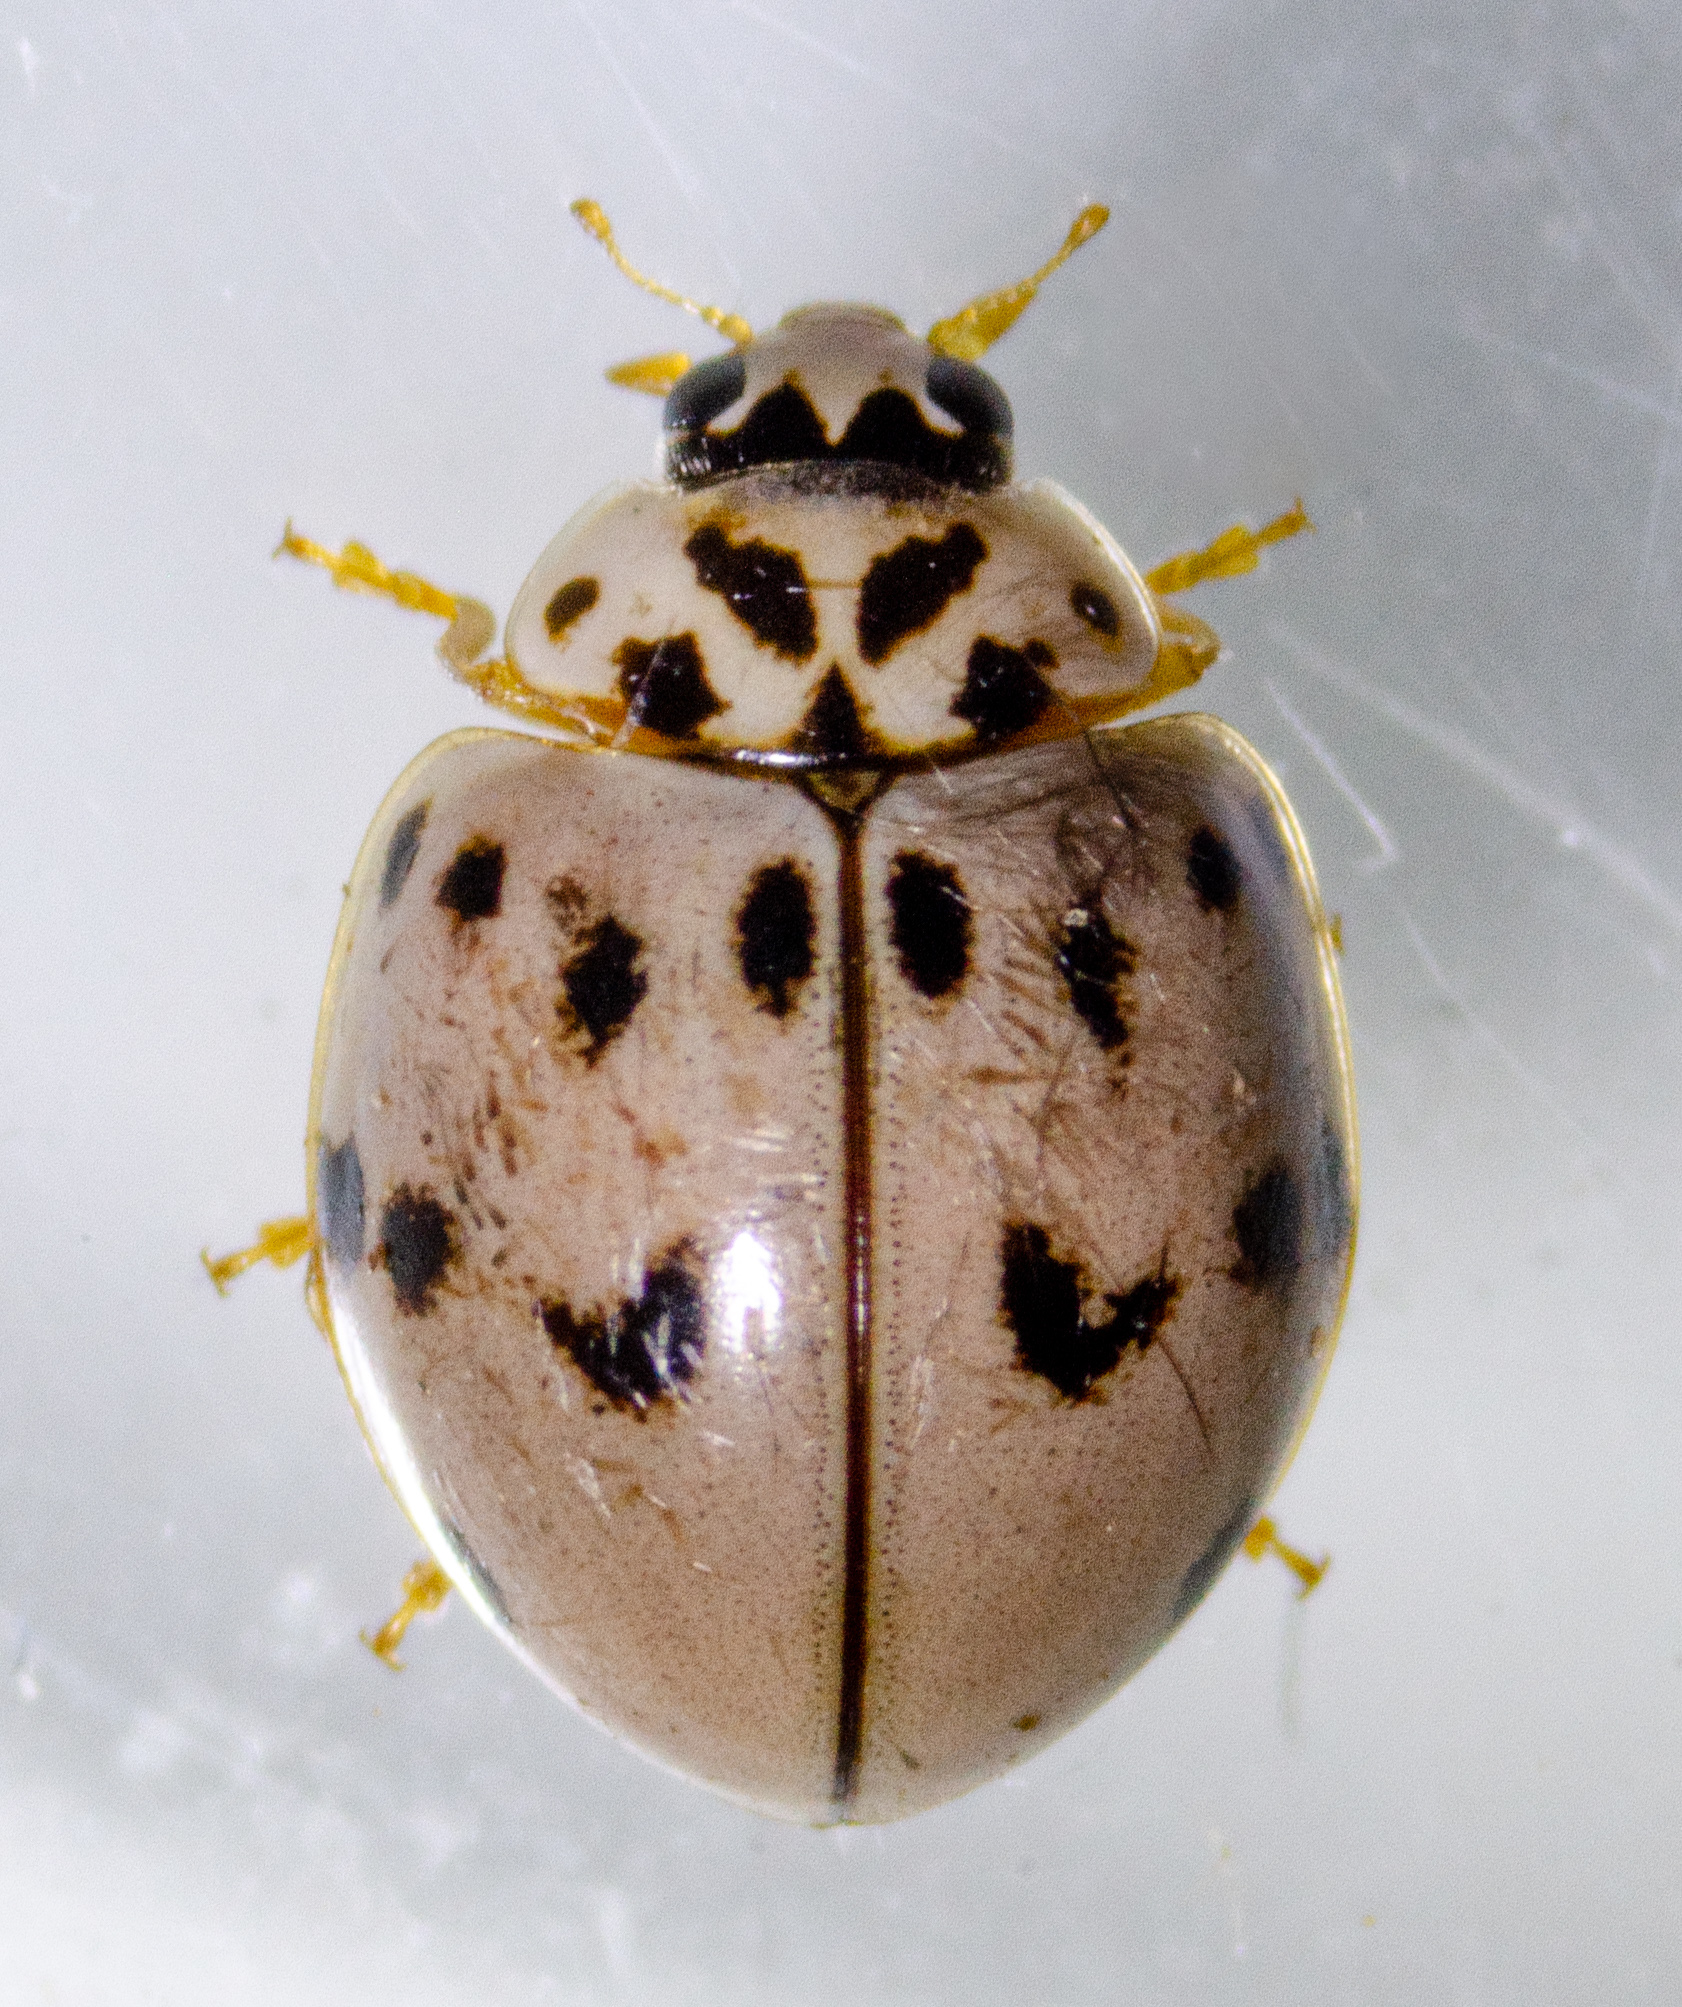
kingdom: Animalia
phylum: Arthropoda
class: Insecta
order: Coleoptera
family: Coccinellidae
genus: Olla
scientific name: Olla v-nigrum
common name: Ashy gray lady beetle
